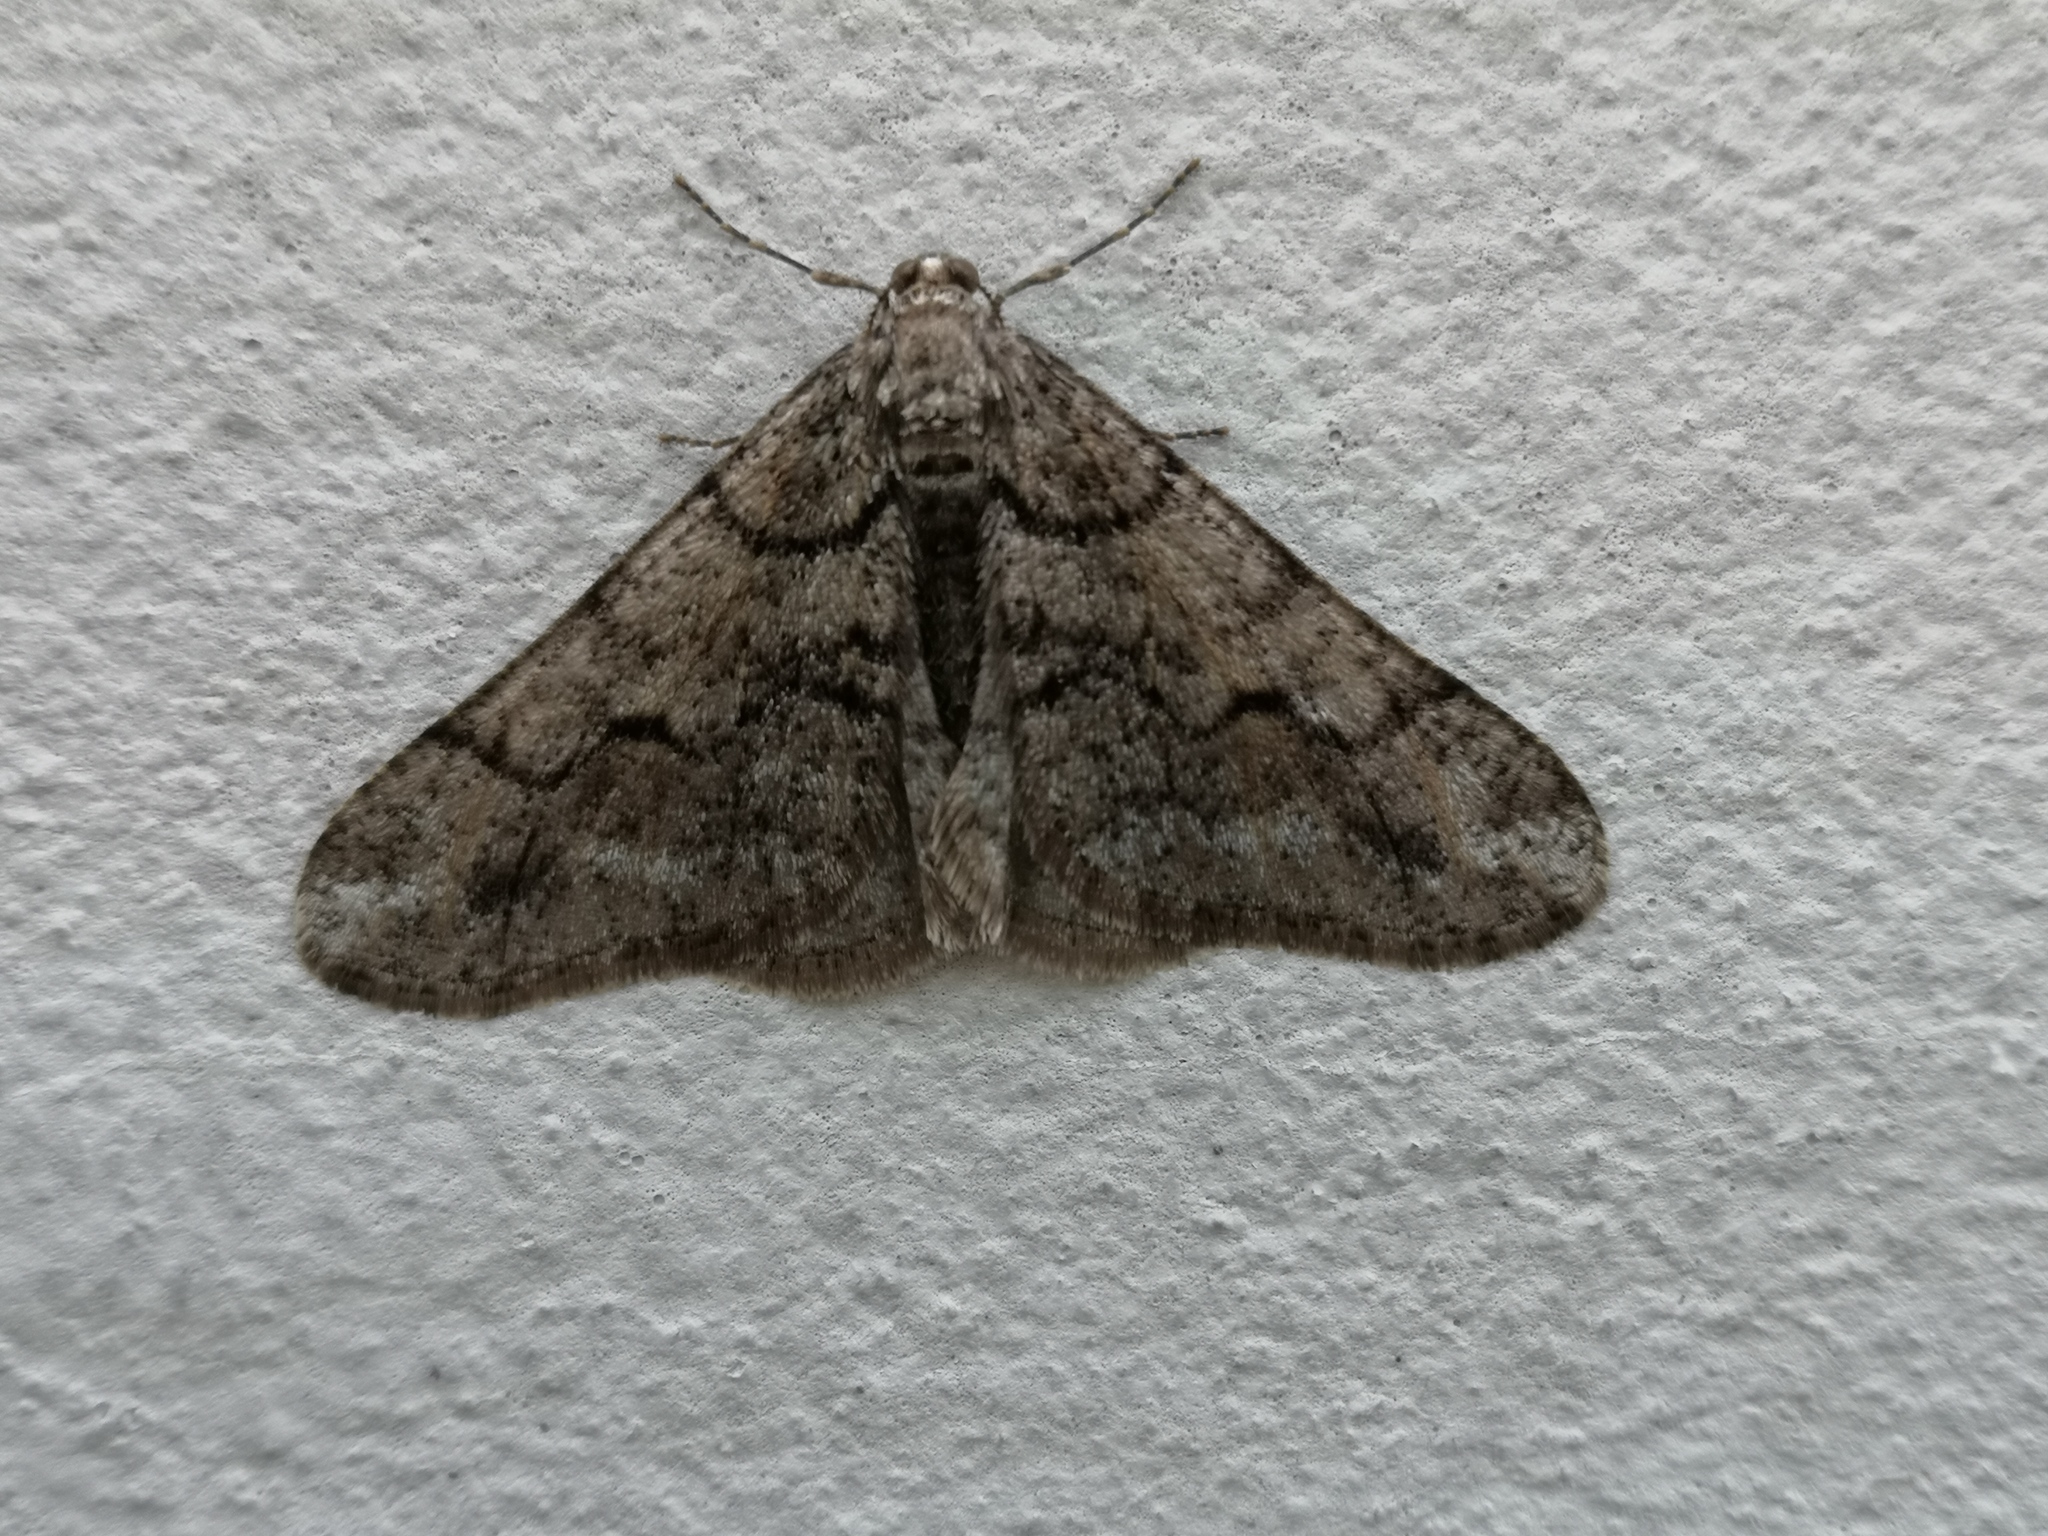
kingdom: Animalia
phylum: Arthropoda
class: Insecta
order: Lepidoptera
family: Geometridae
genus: Agriopis
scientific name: Agriopis leucophaearia
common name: Spring usher
